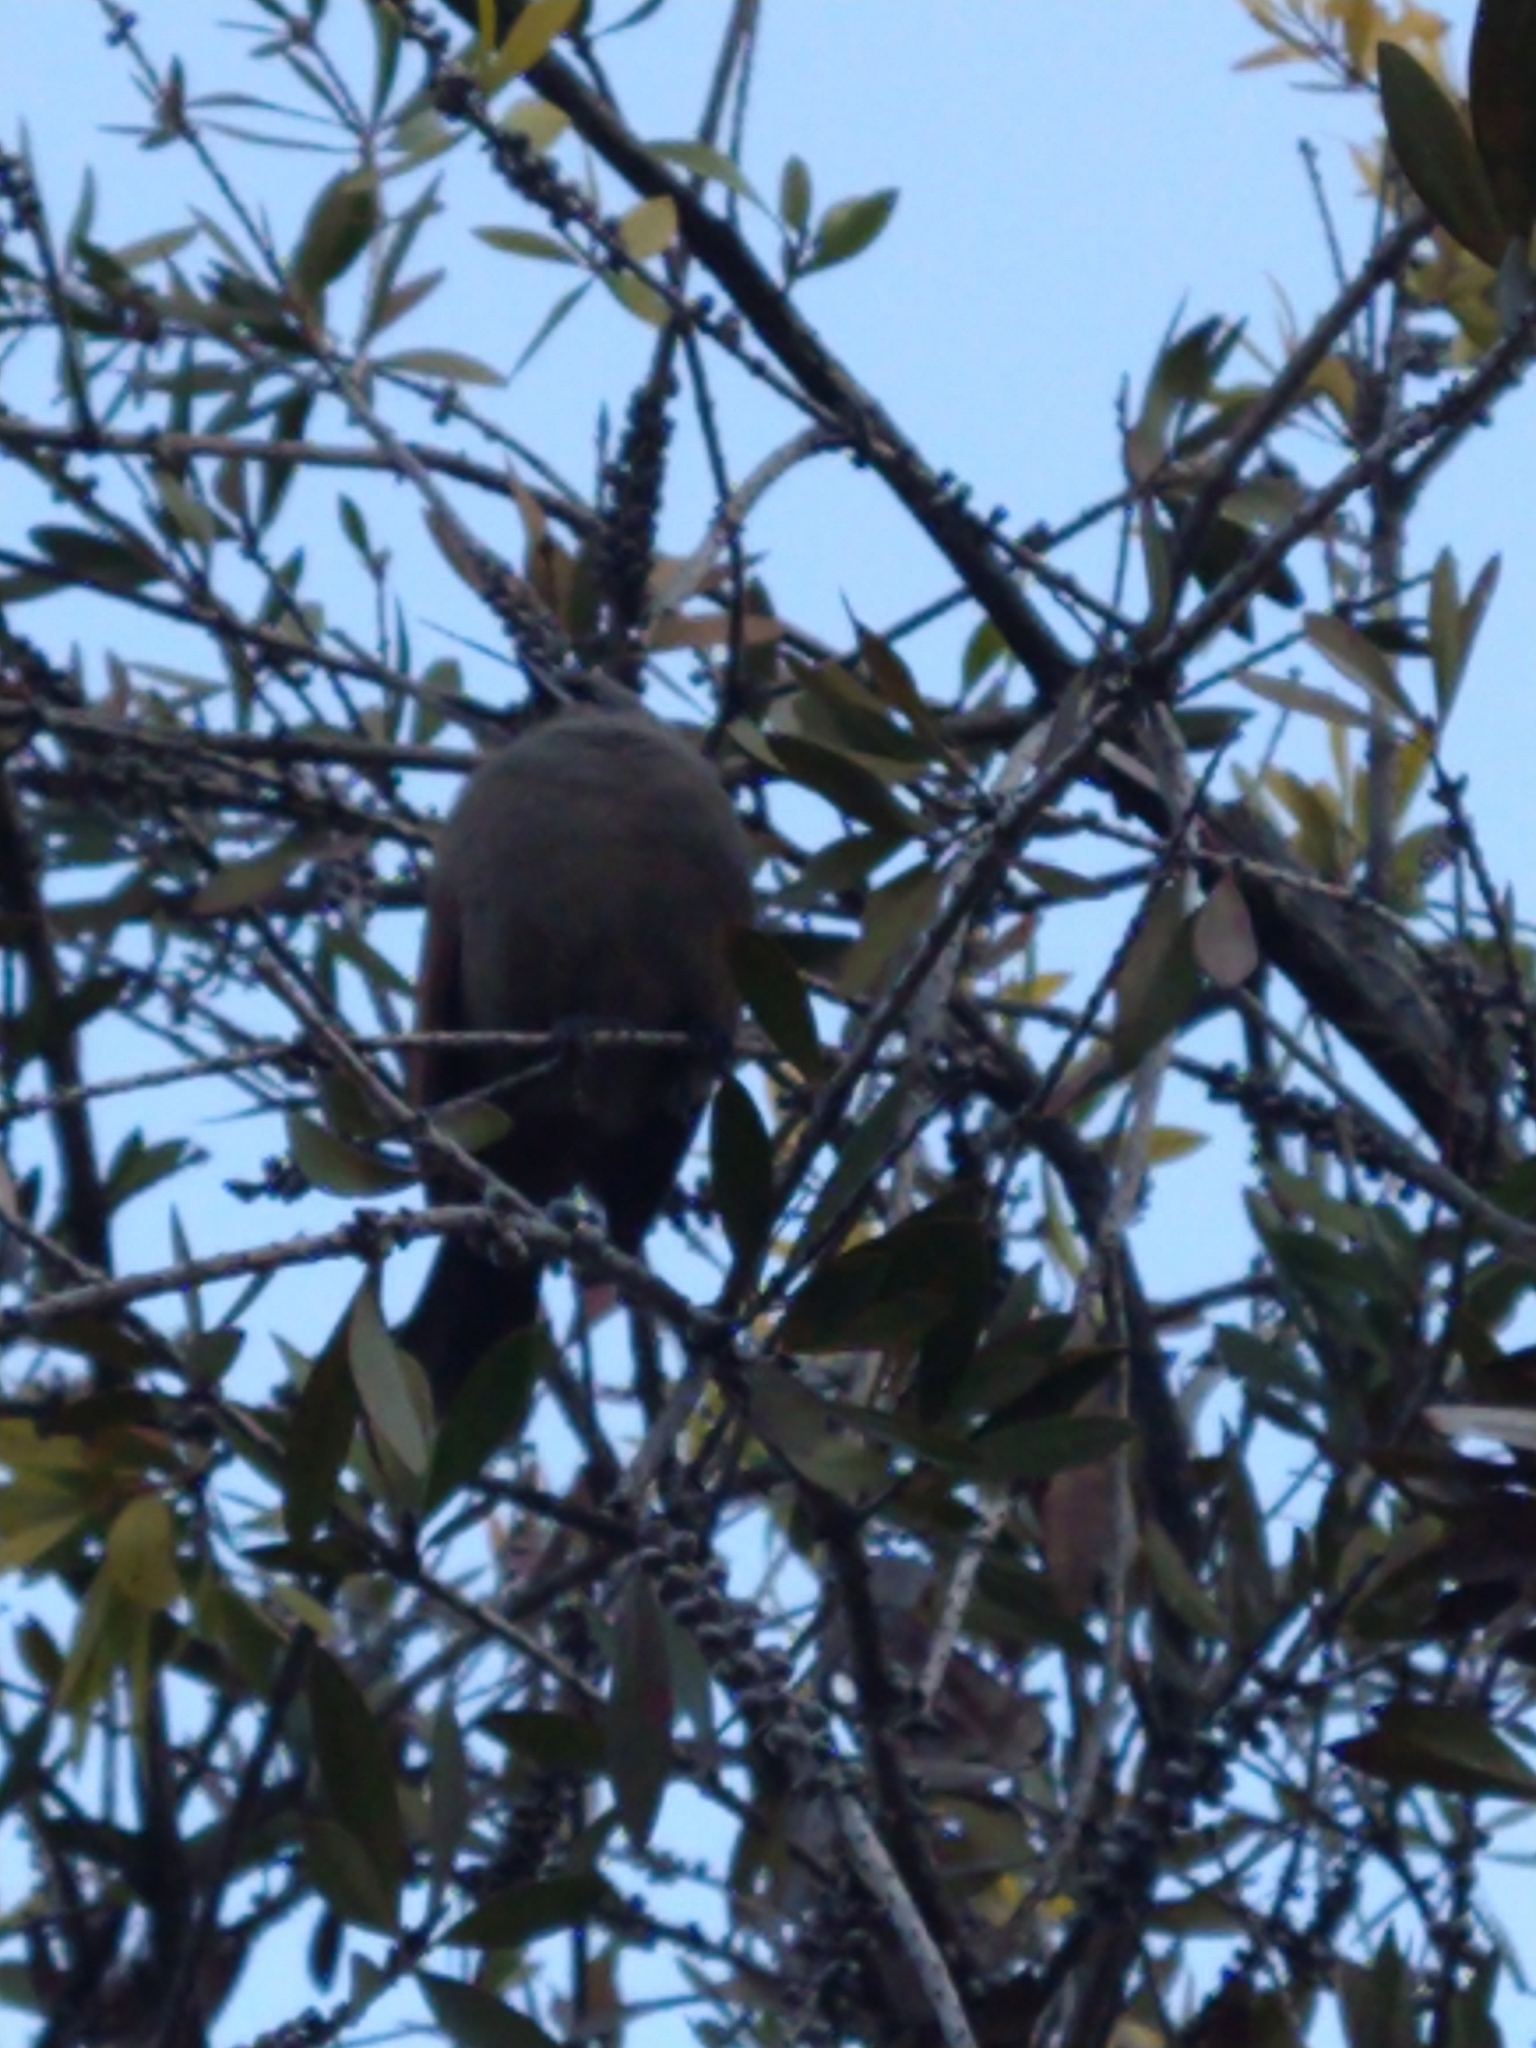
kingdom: Animalia
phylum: Chordata
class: Aves
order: Passeriformes
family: Icteridae
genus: Agelaioides
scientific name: Agelaioides badius
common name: Baywing
